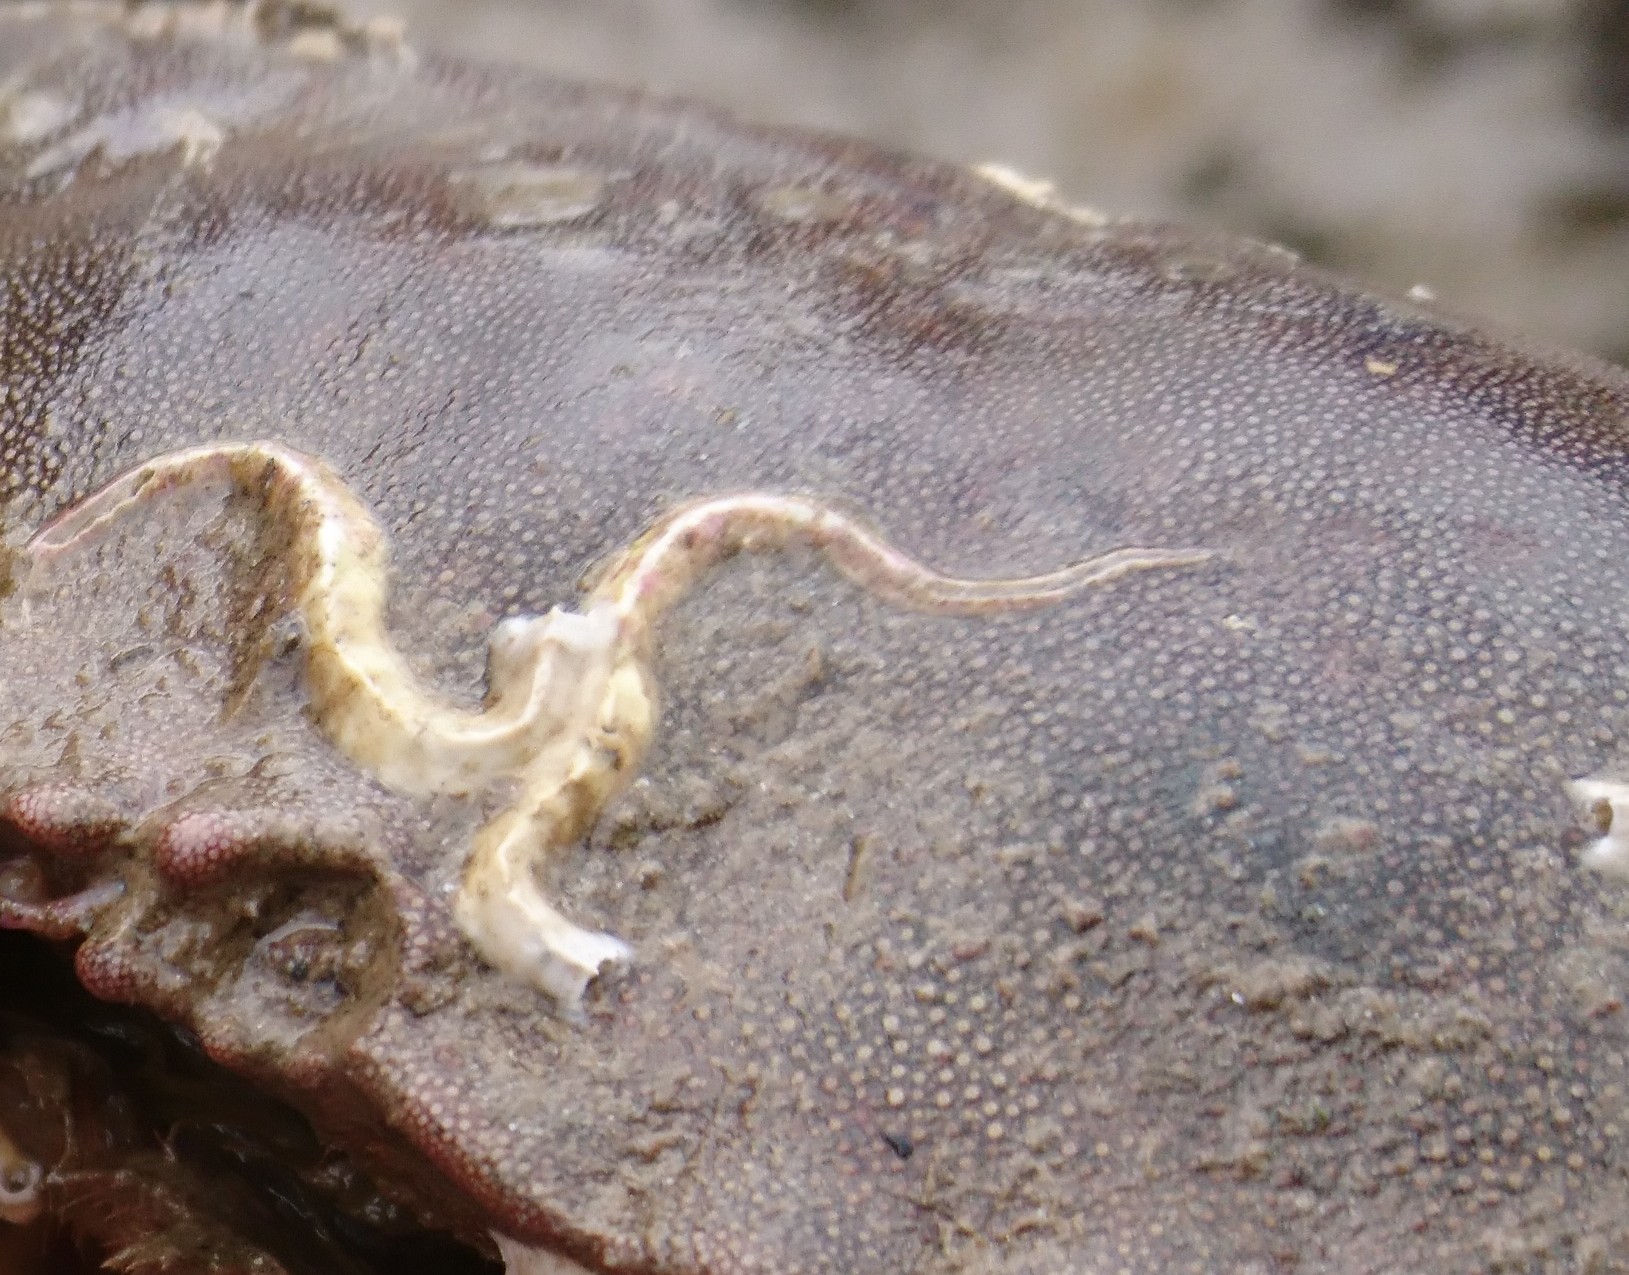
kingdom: Animalia
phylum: Annelida
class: Polychaeta
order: Sabellida
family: Serpulidae
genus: Spirobranchus
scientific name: Spirobranchus triqueter
